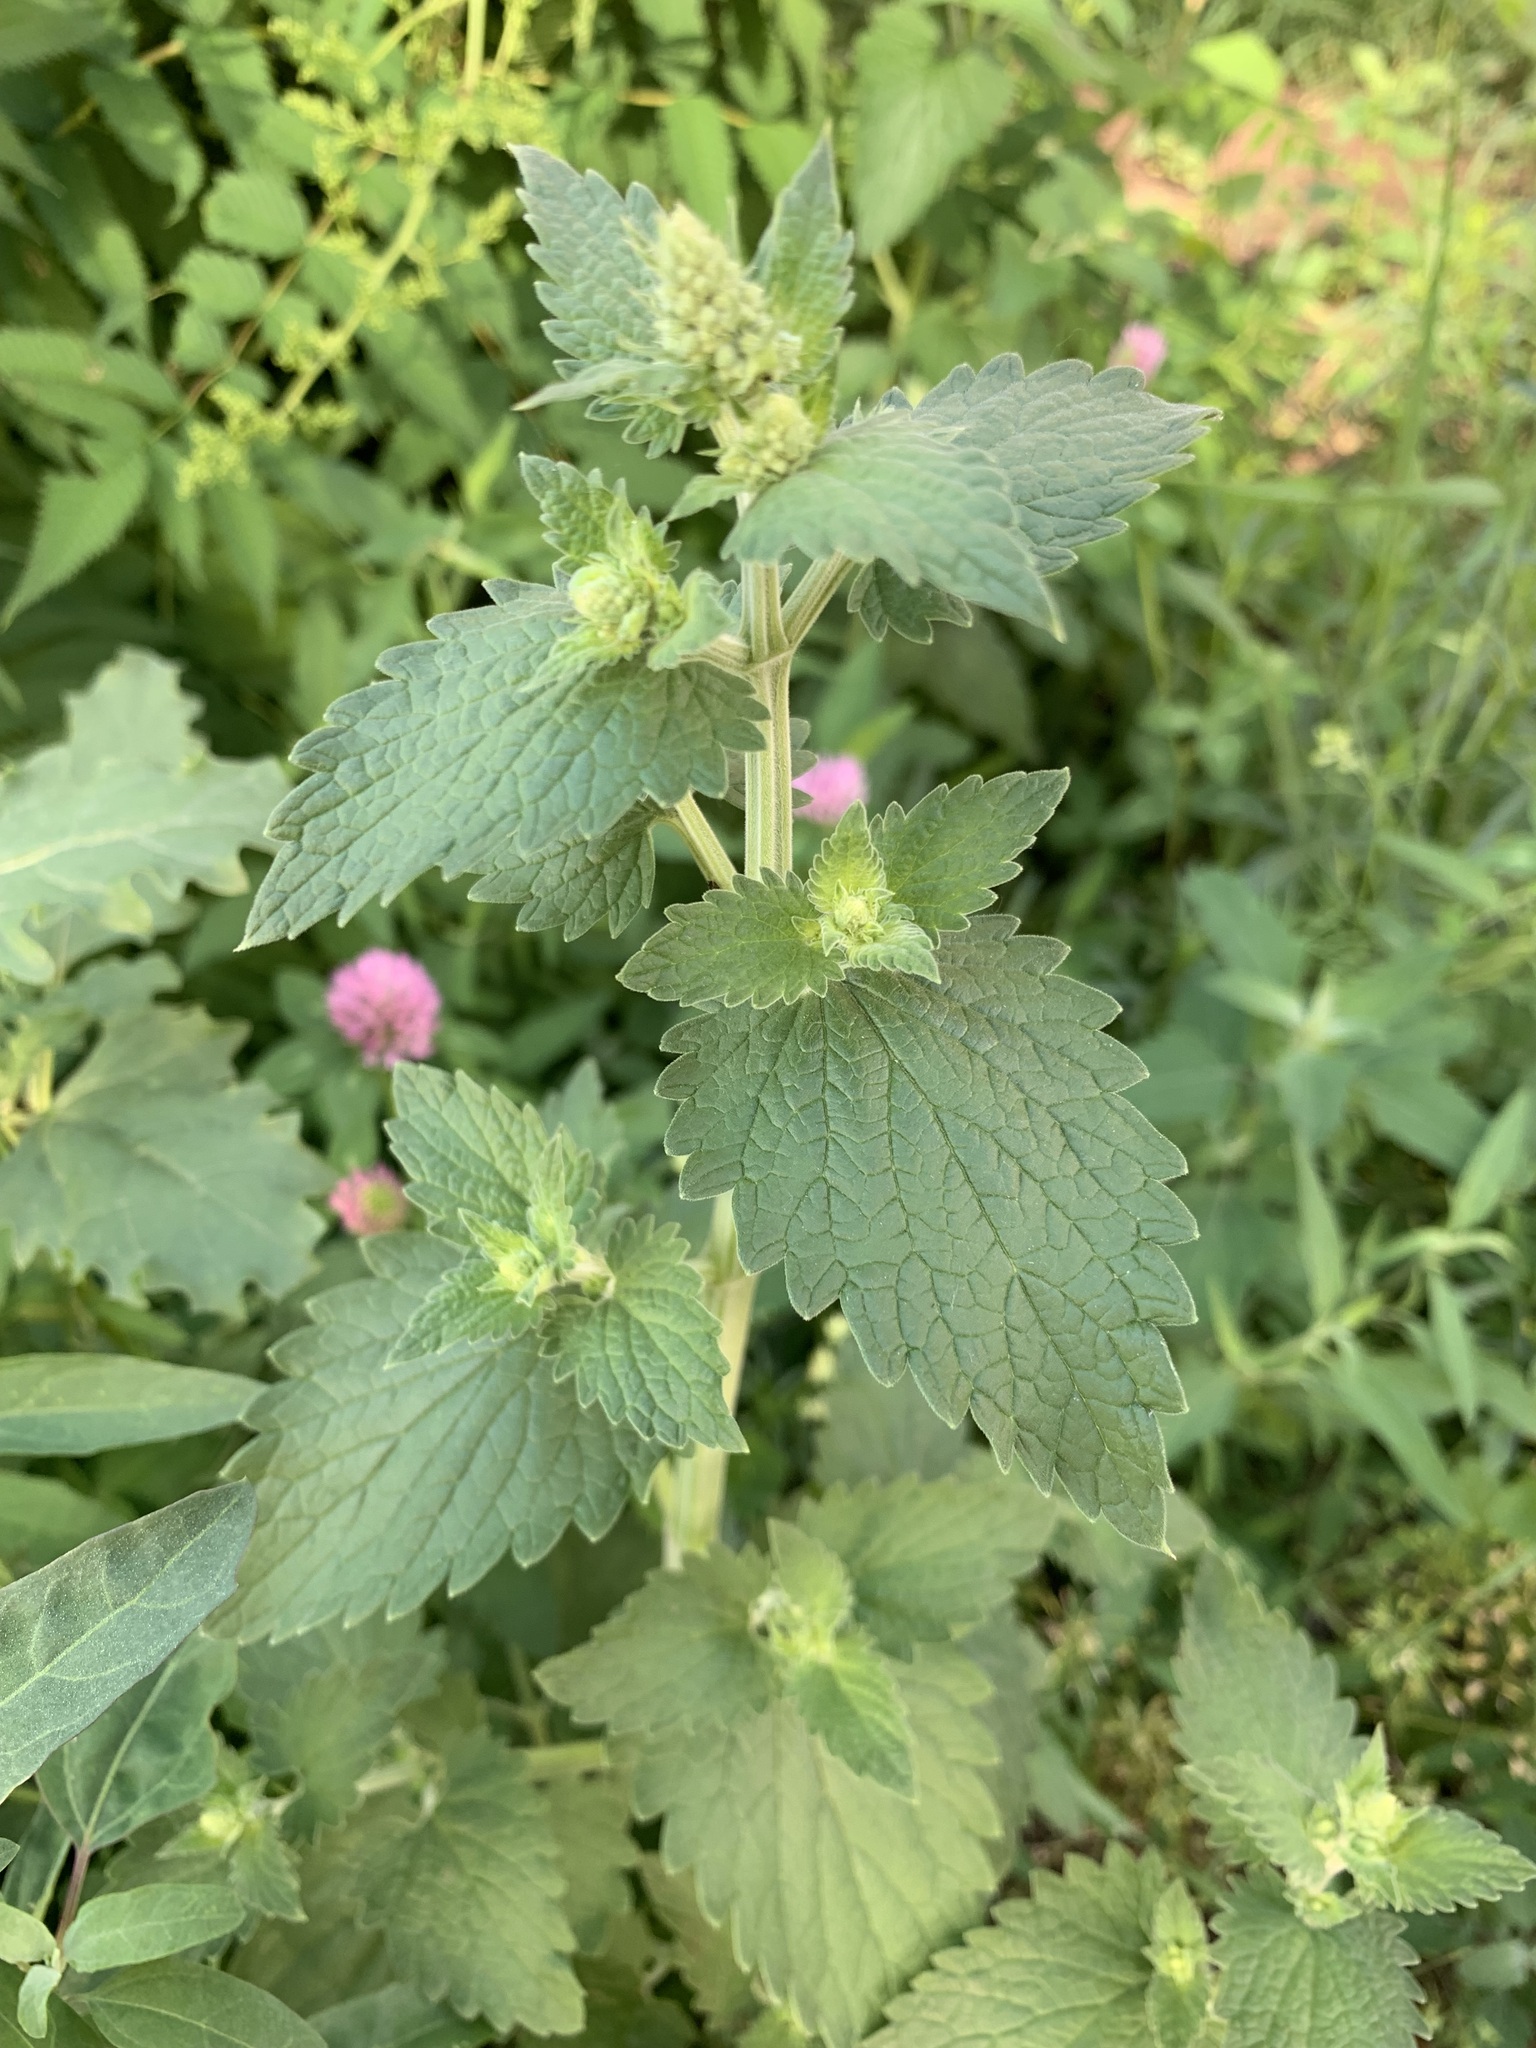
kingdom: Plantae
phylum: Tracheophyta
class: Magnoliopsida
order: Lamiales
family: Lamiaceae
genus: Nepeta
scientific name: Nepeta cataria
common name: Catnip
